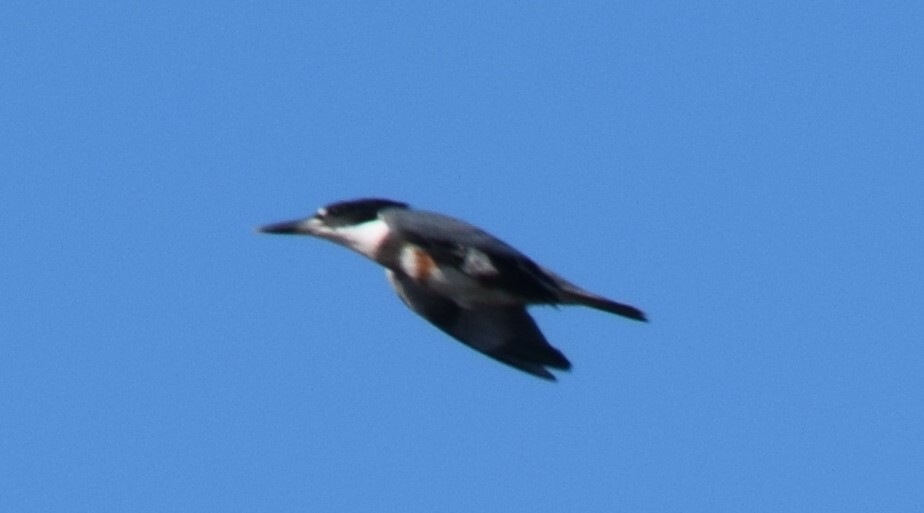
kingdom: Animalia
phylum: Chordata
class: Aves
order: Coraciiformes
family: Alcedinidae
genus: Megaceryle
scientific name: Megaceryle alcyon
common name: Belted kingfisher
